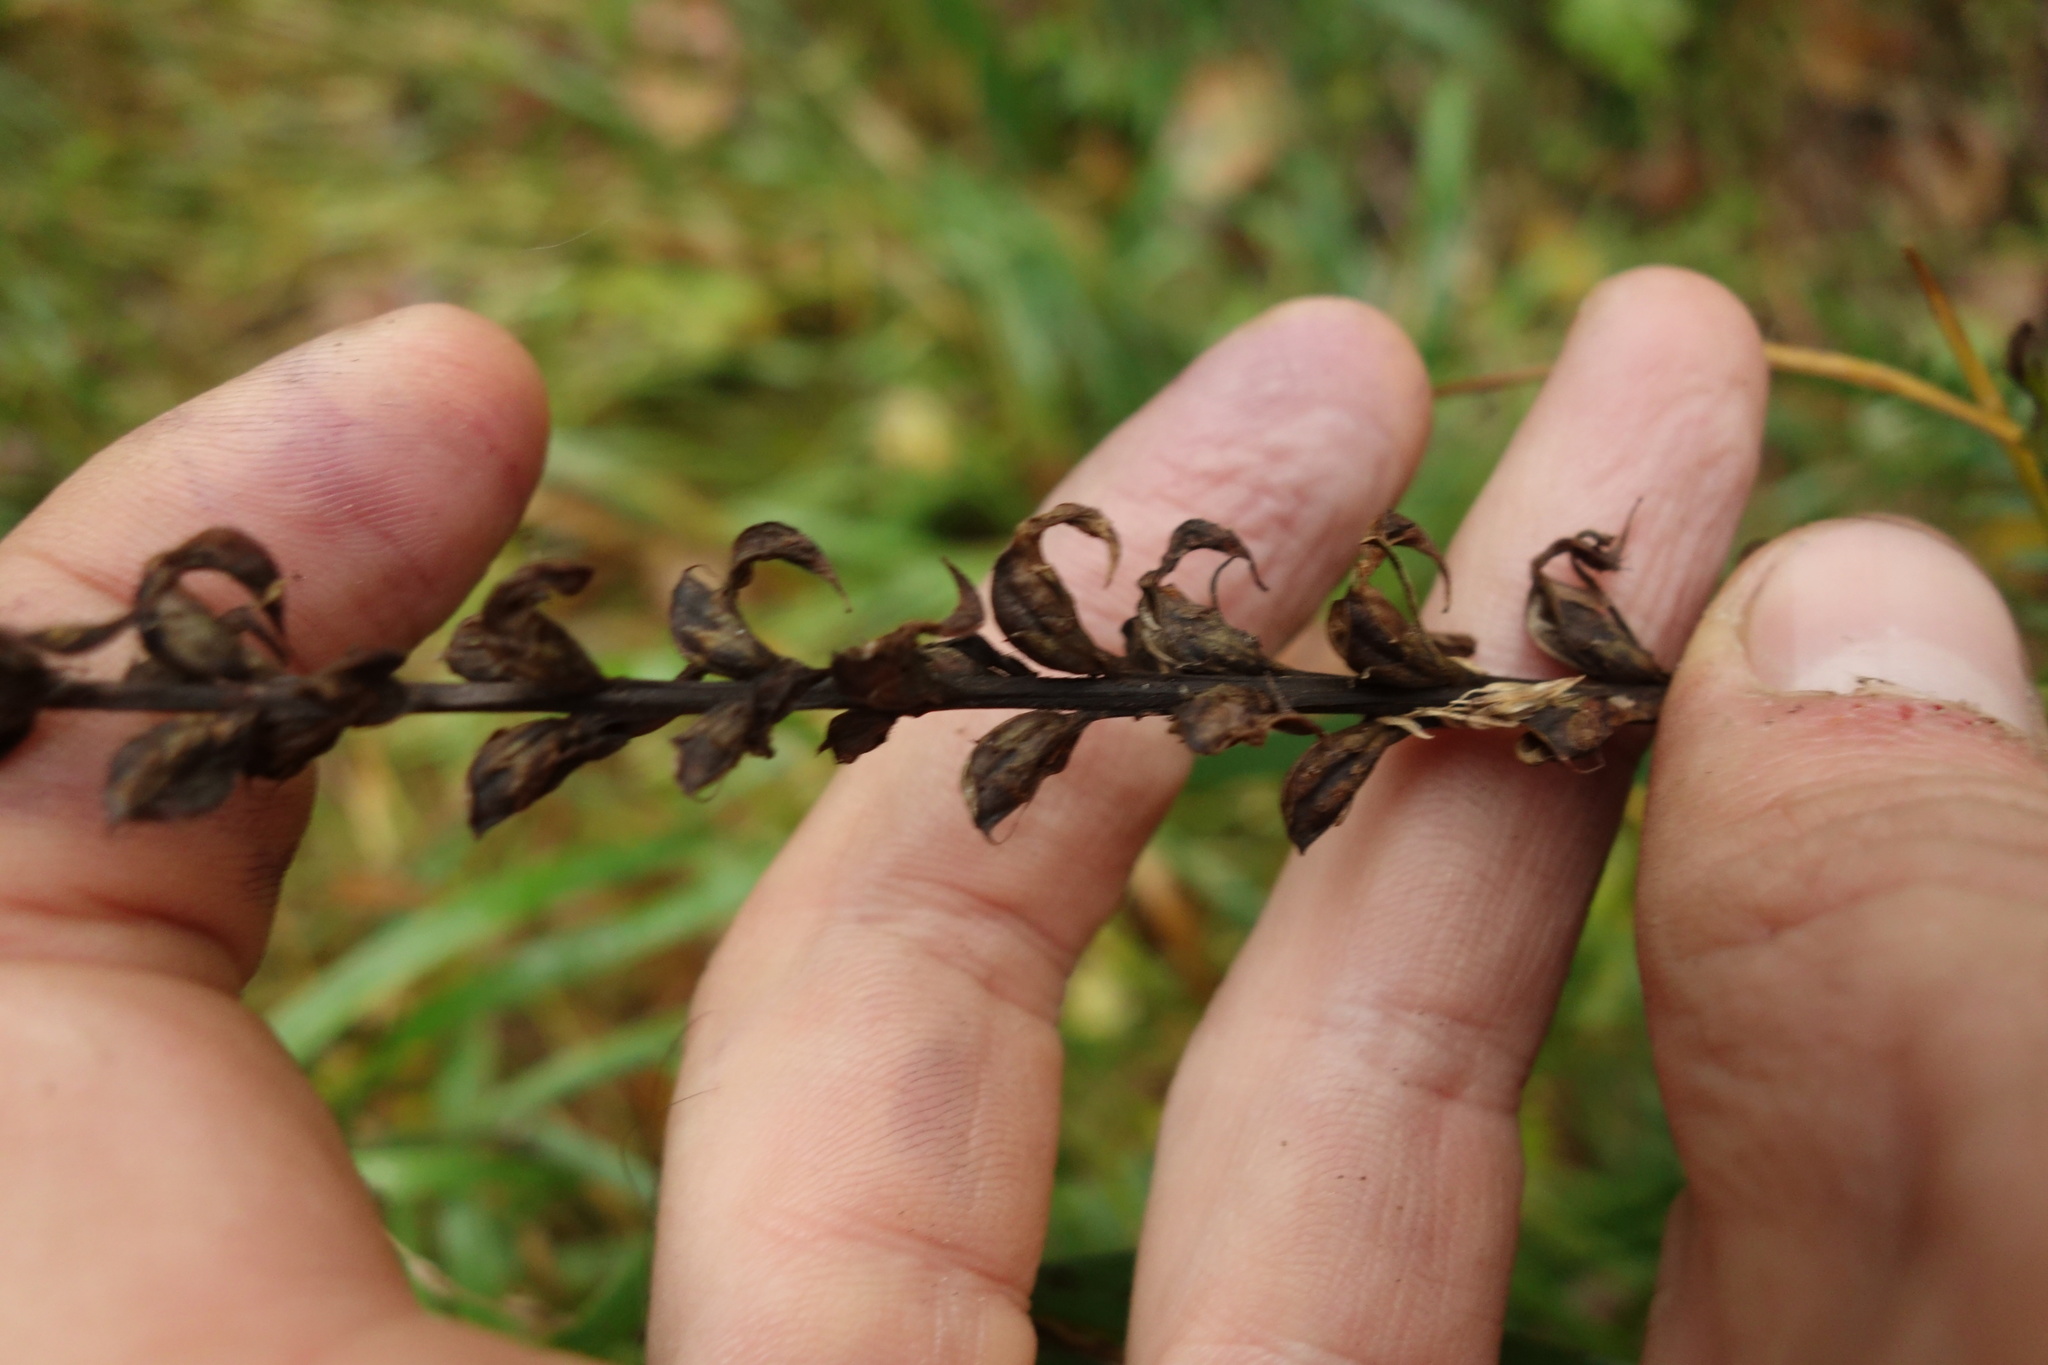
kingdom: Plantae
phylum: Tracheophyta
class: Magnoliopsida
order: Lamiales
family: Orobanchaceae
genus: Pedicularis
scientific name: Pedicularis incarnata
